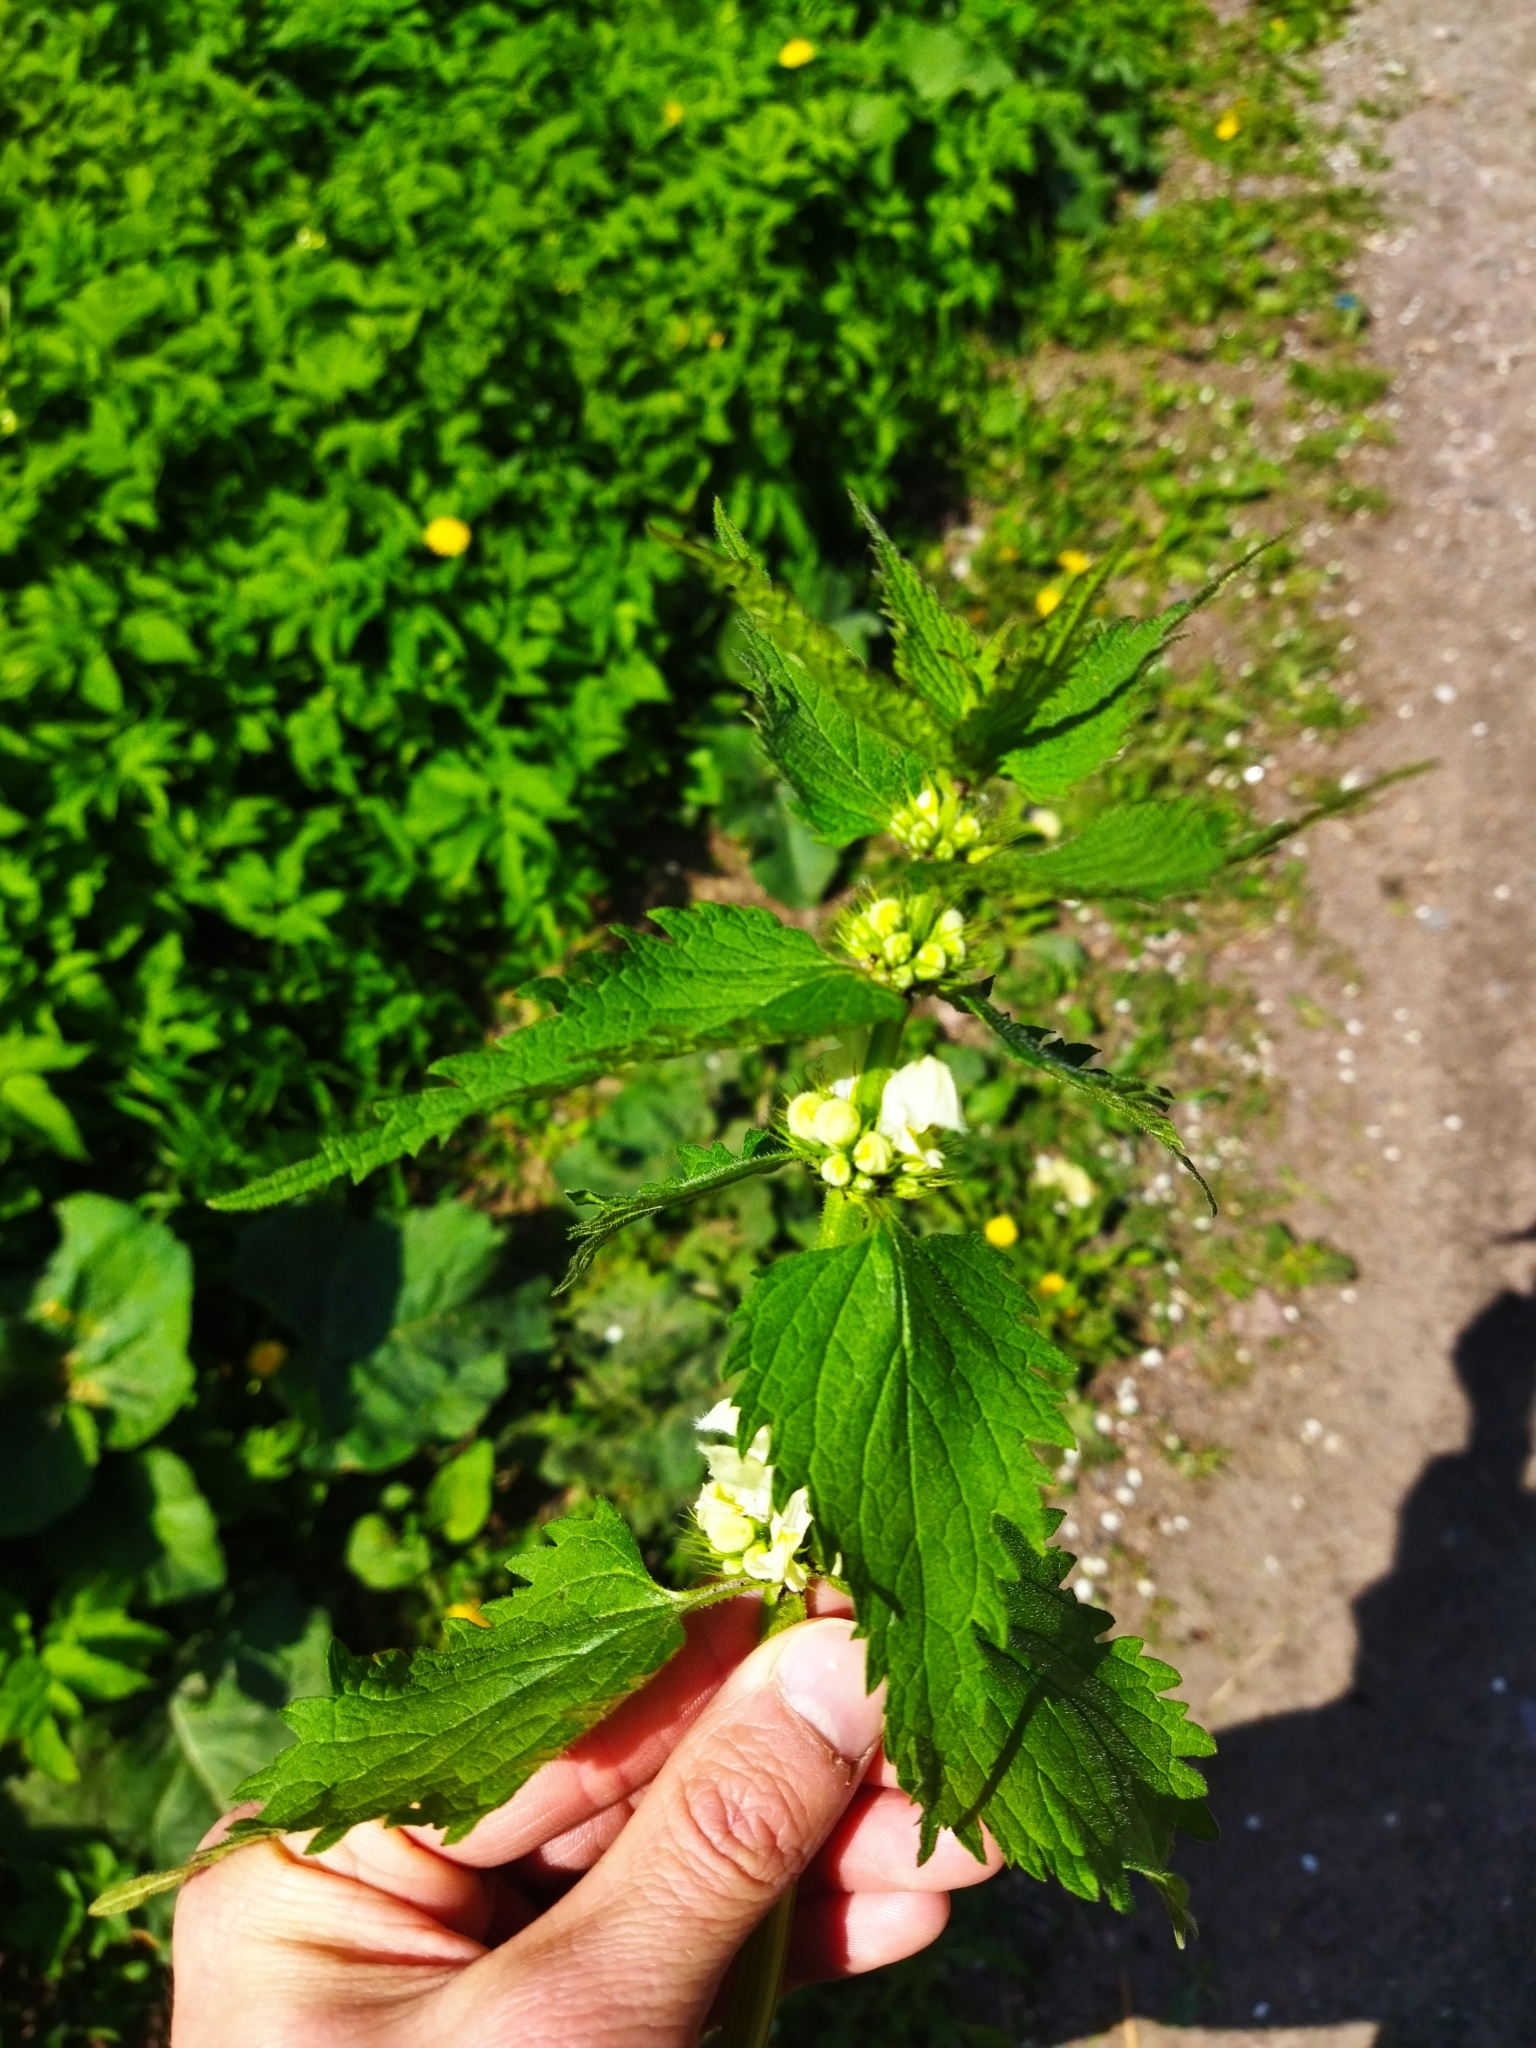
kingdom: Plantae
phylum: Tracheophyta
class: Magnoliopsida
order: Lamiales
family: Lamiaceae
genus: Lamium
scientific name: Lamium album
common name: White dead-nettle
